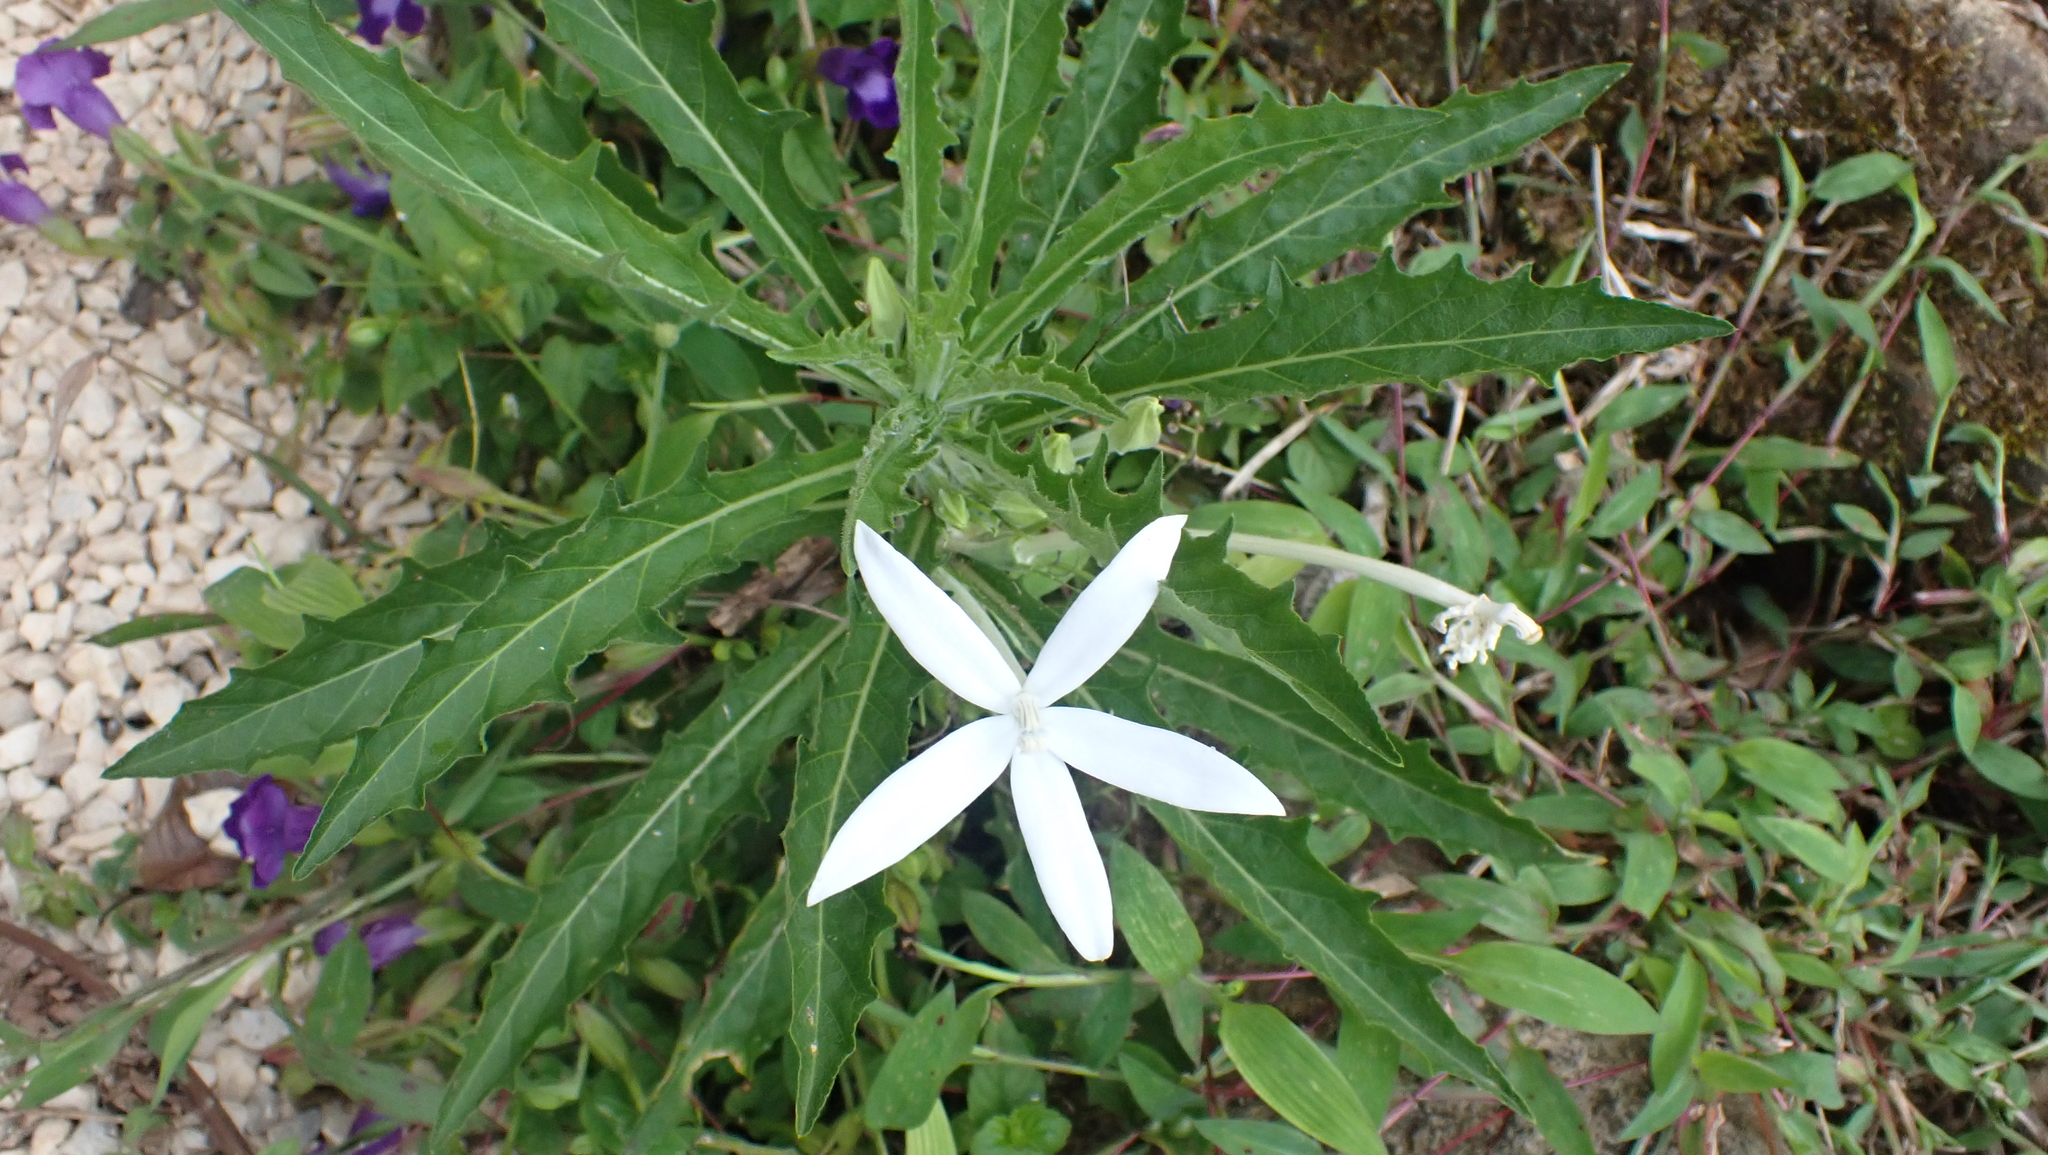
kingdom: Plantae
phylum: Tracheophyta
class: Magnoliopsida
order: Asterales
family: Campanulaceae
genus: Hippobroma
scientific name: Hippobroma longiflora
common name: Madamfate
